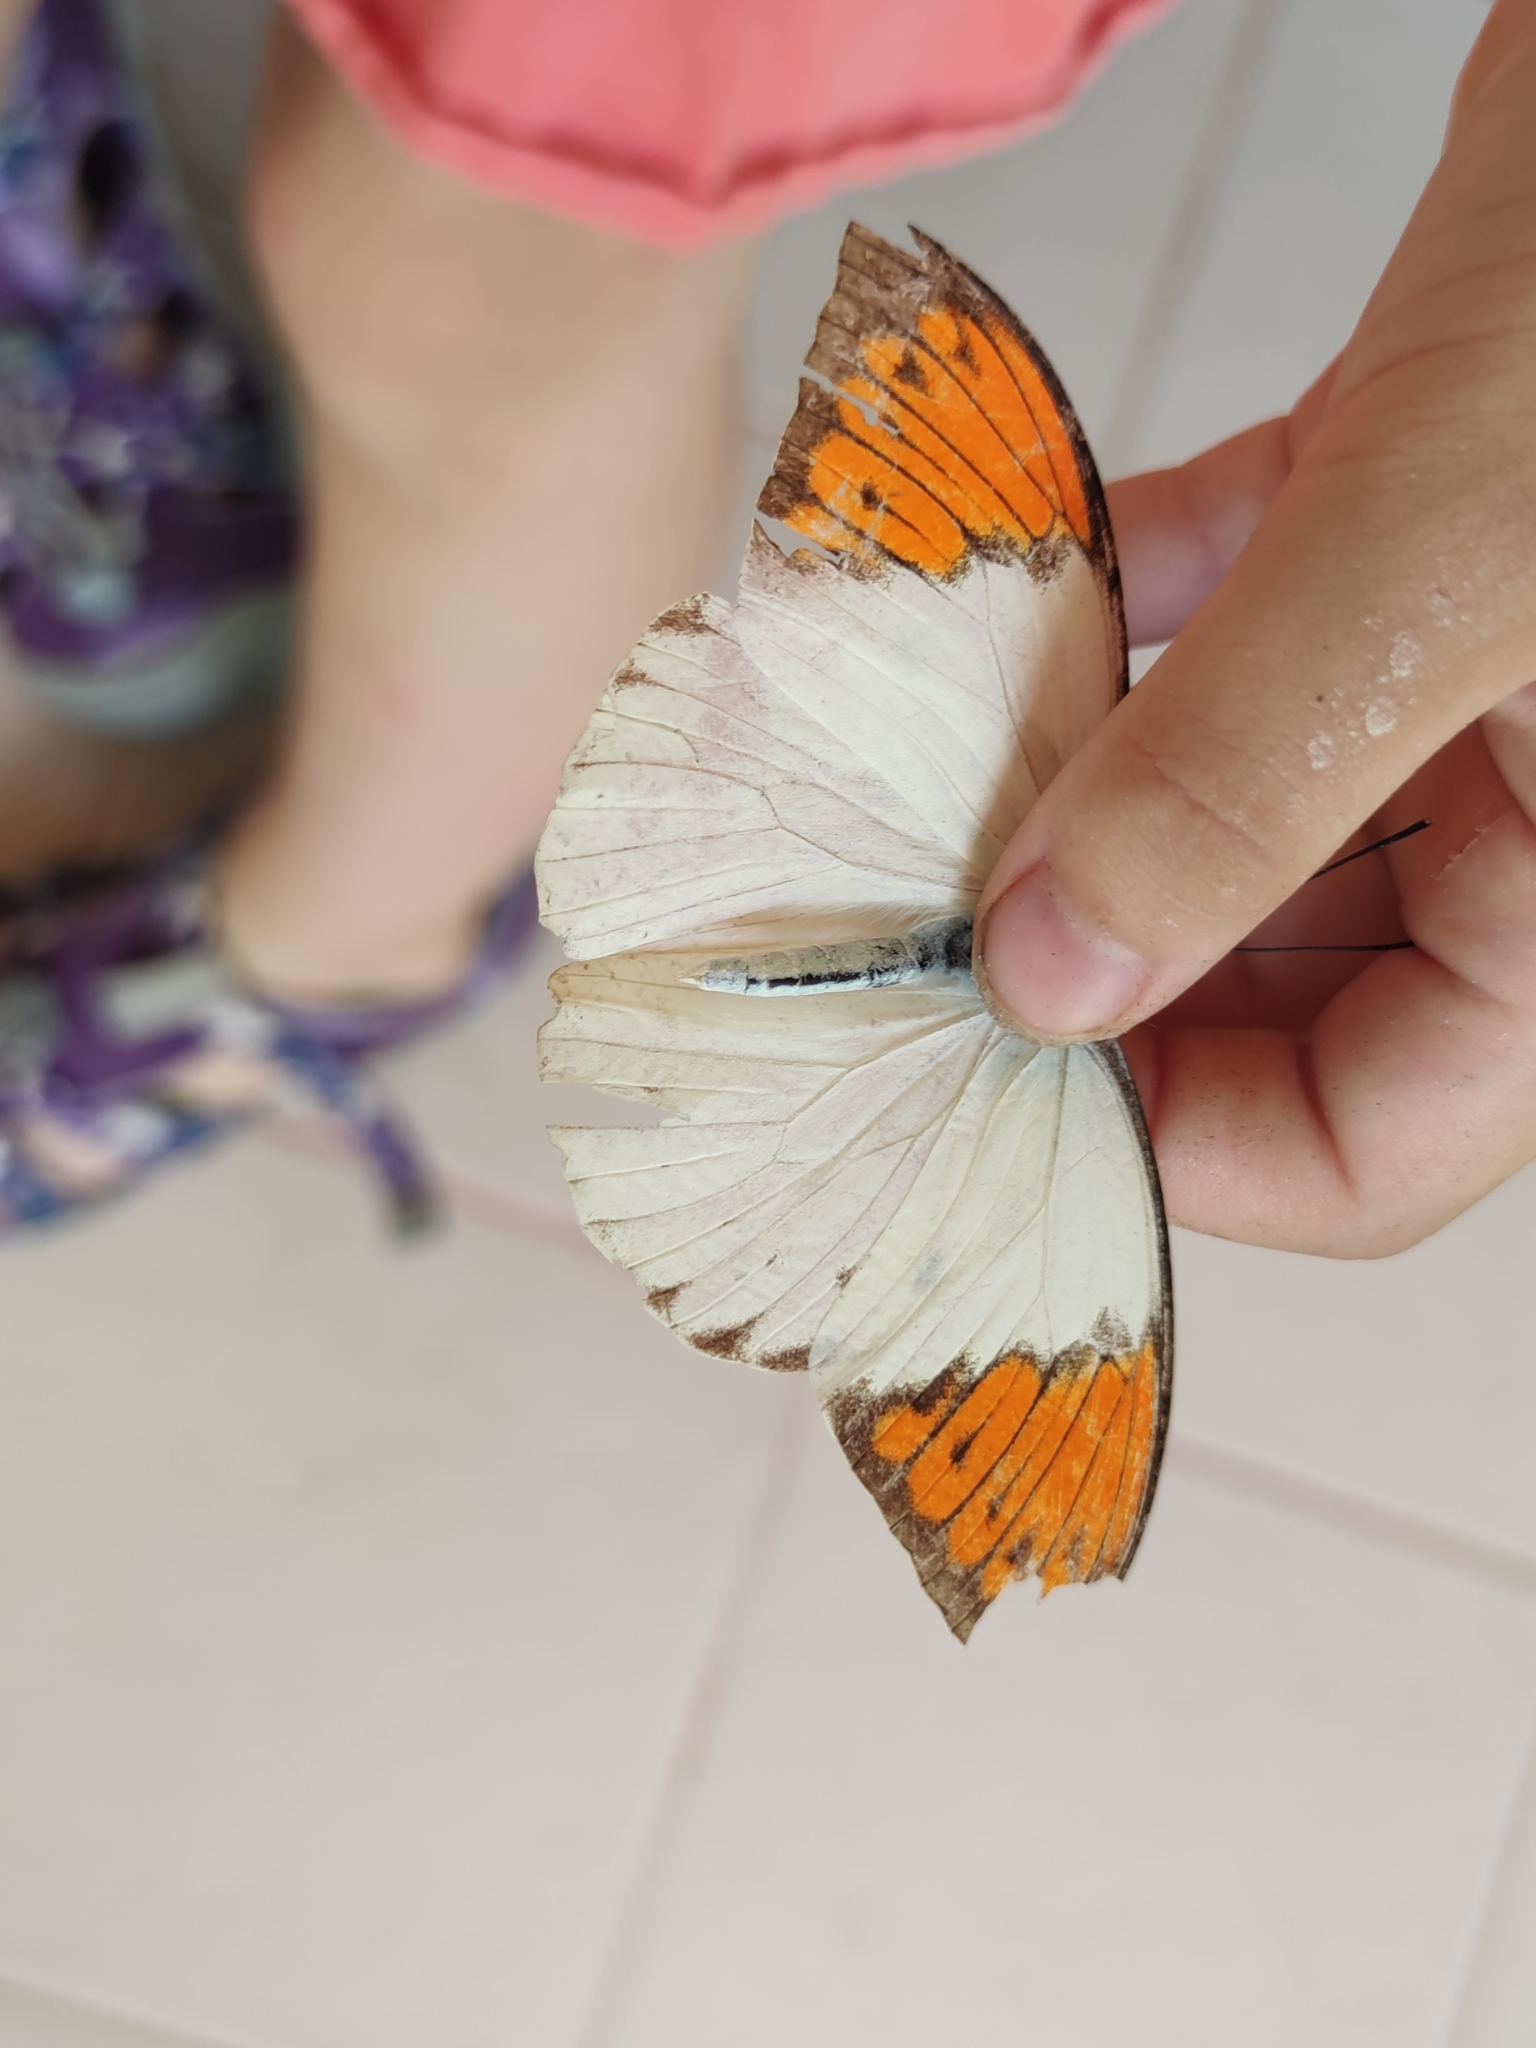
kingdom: Animalia
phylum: Arthropoda
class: Insecta
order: Lepidoptera
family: Pieridae
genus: Hebomoia
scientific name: Hebomoia glaucippe
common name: Great orange tip
